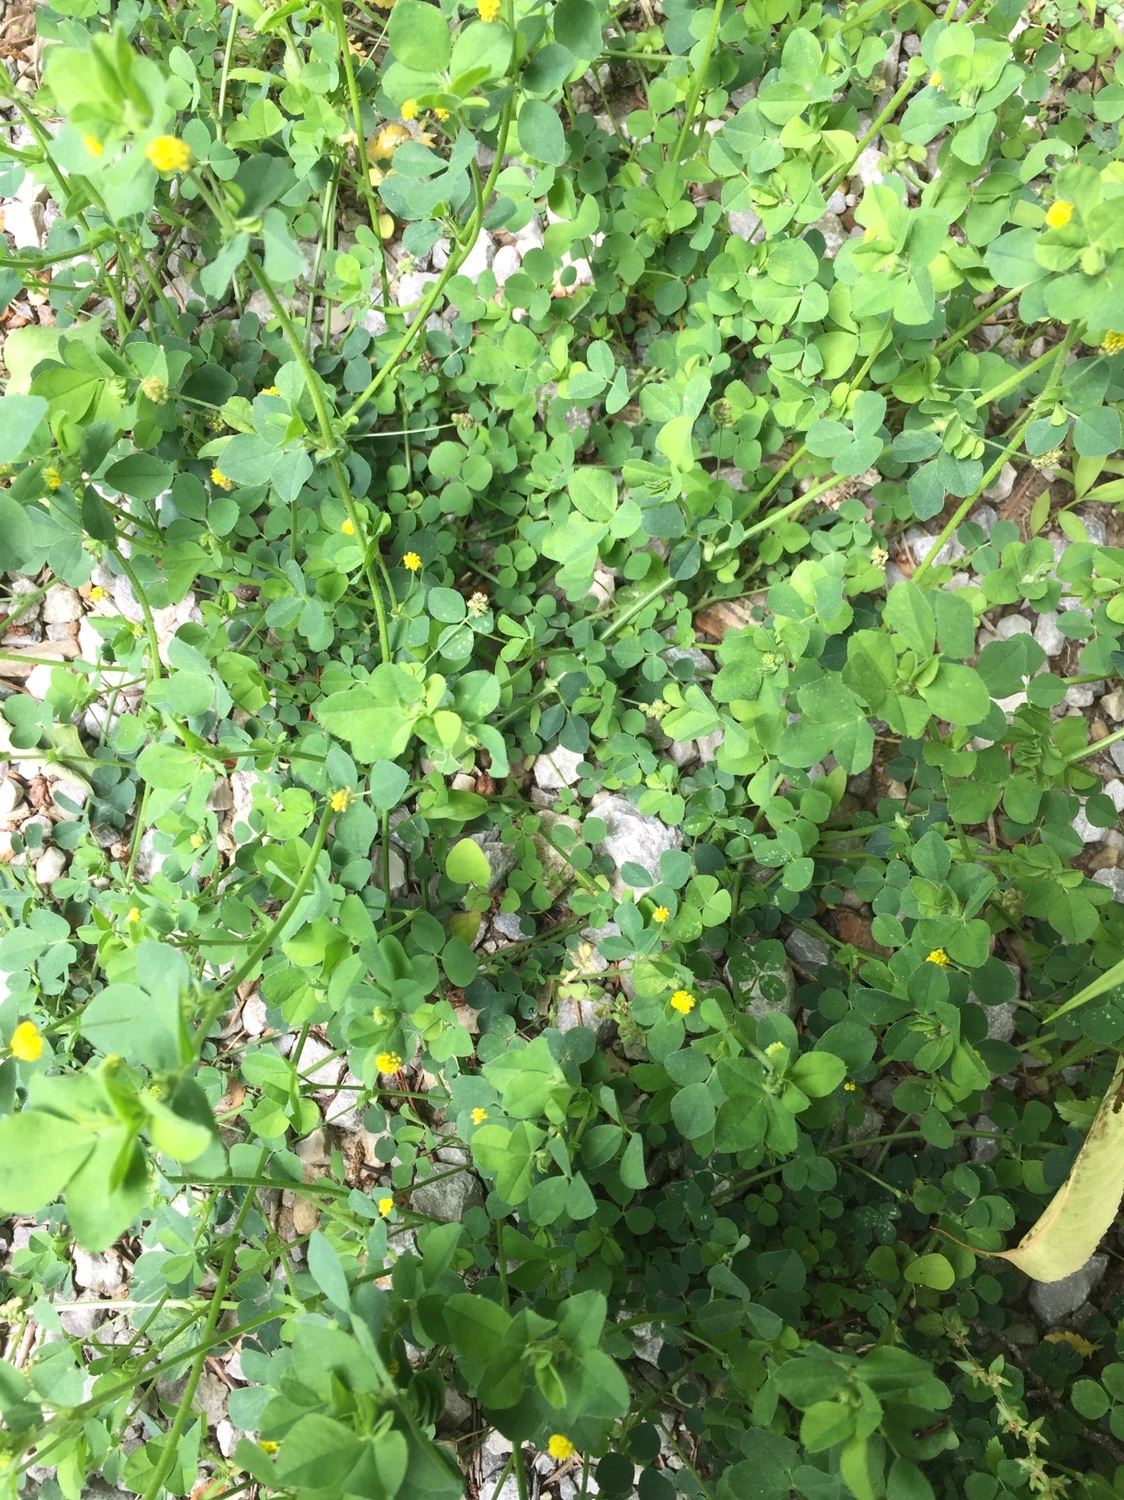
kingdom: Plantae
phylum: Tracheophyta
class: Magnoliopsida
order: Fabales
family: Fabaceae
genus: Medicago
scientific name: Medicago lupulina
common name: Black medick
